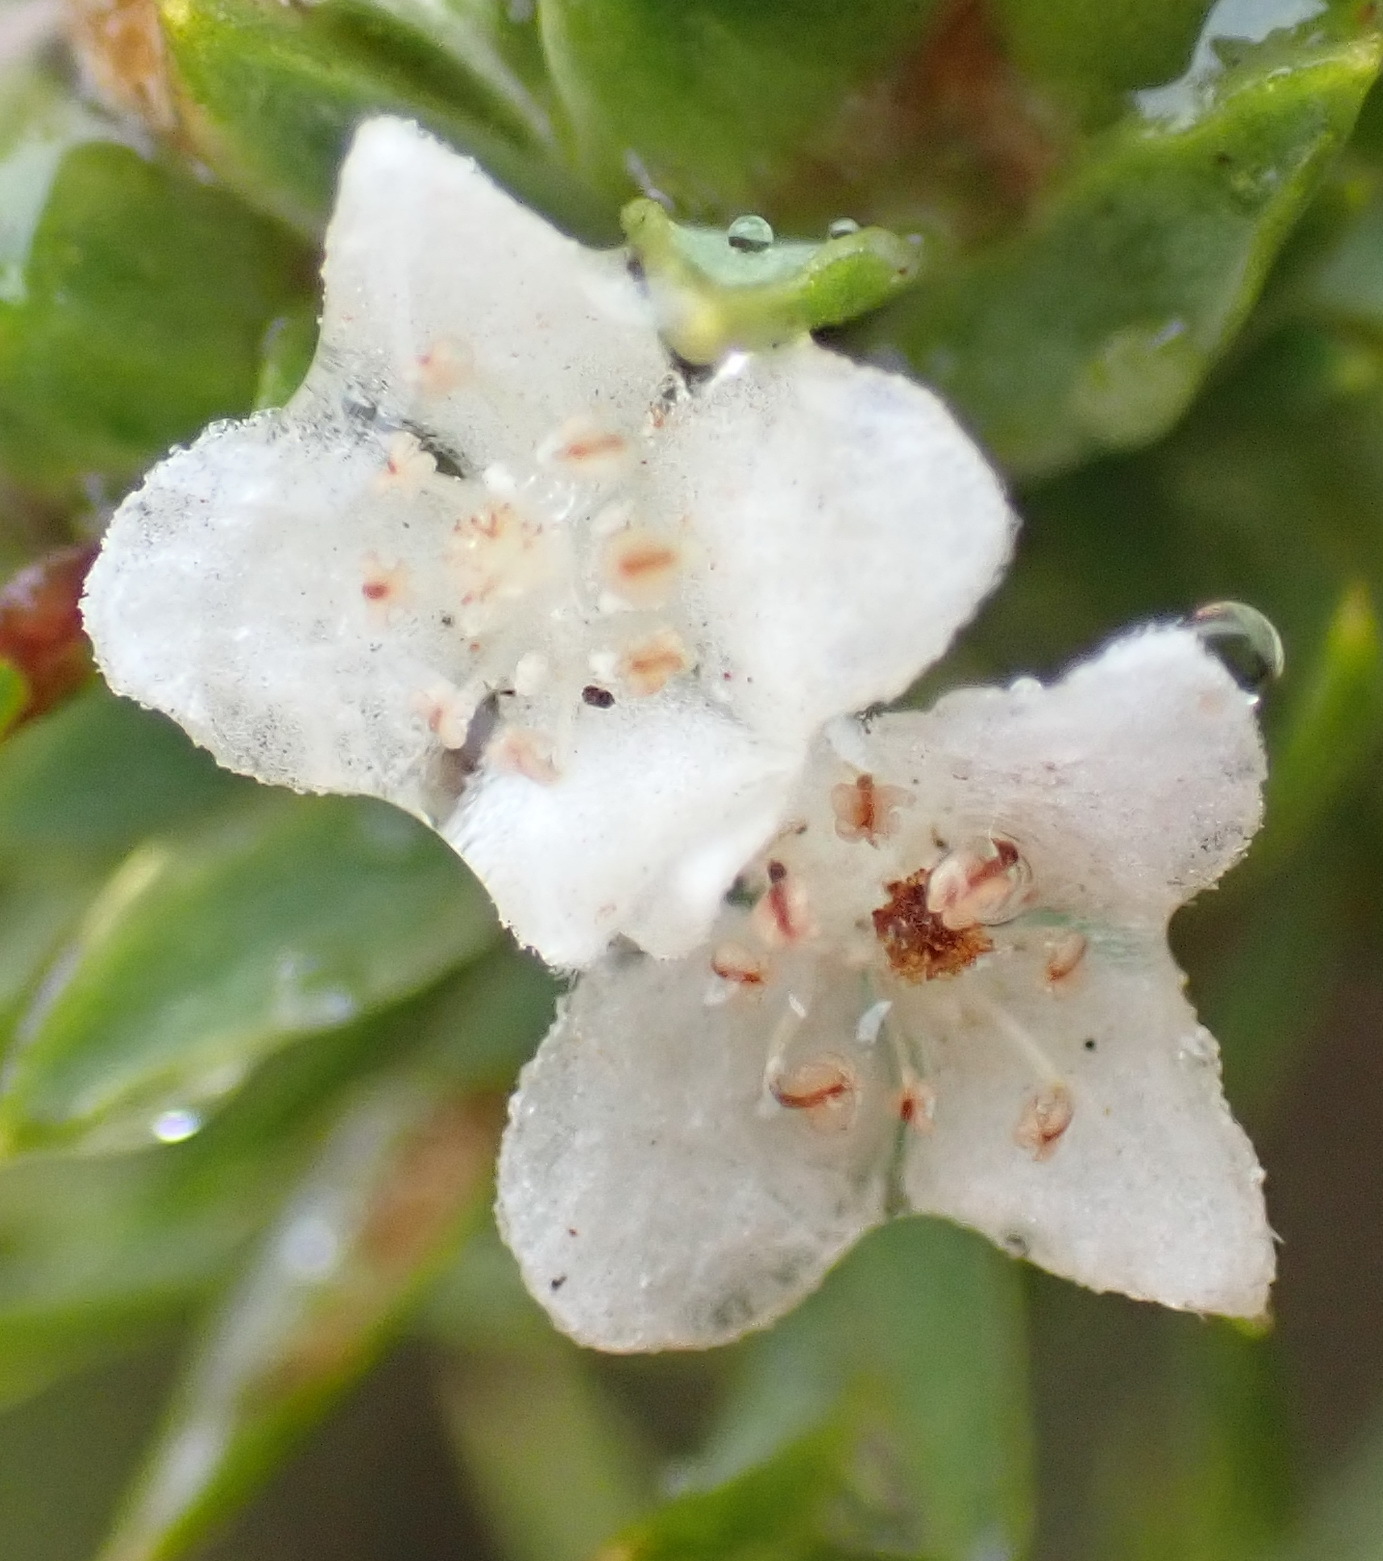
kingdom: Plantae
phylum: Tracheophyta
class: Magnoliopsida
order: Malvales
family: Thymelaeaceae
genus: Lachnaea
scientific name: Lachnaea diosmoides
